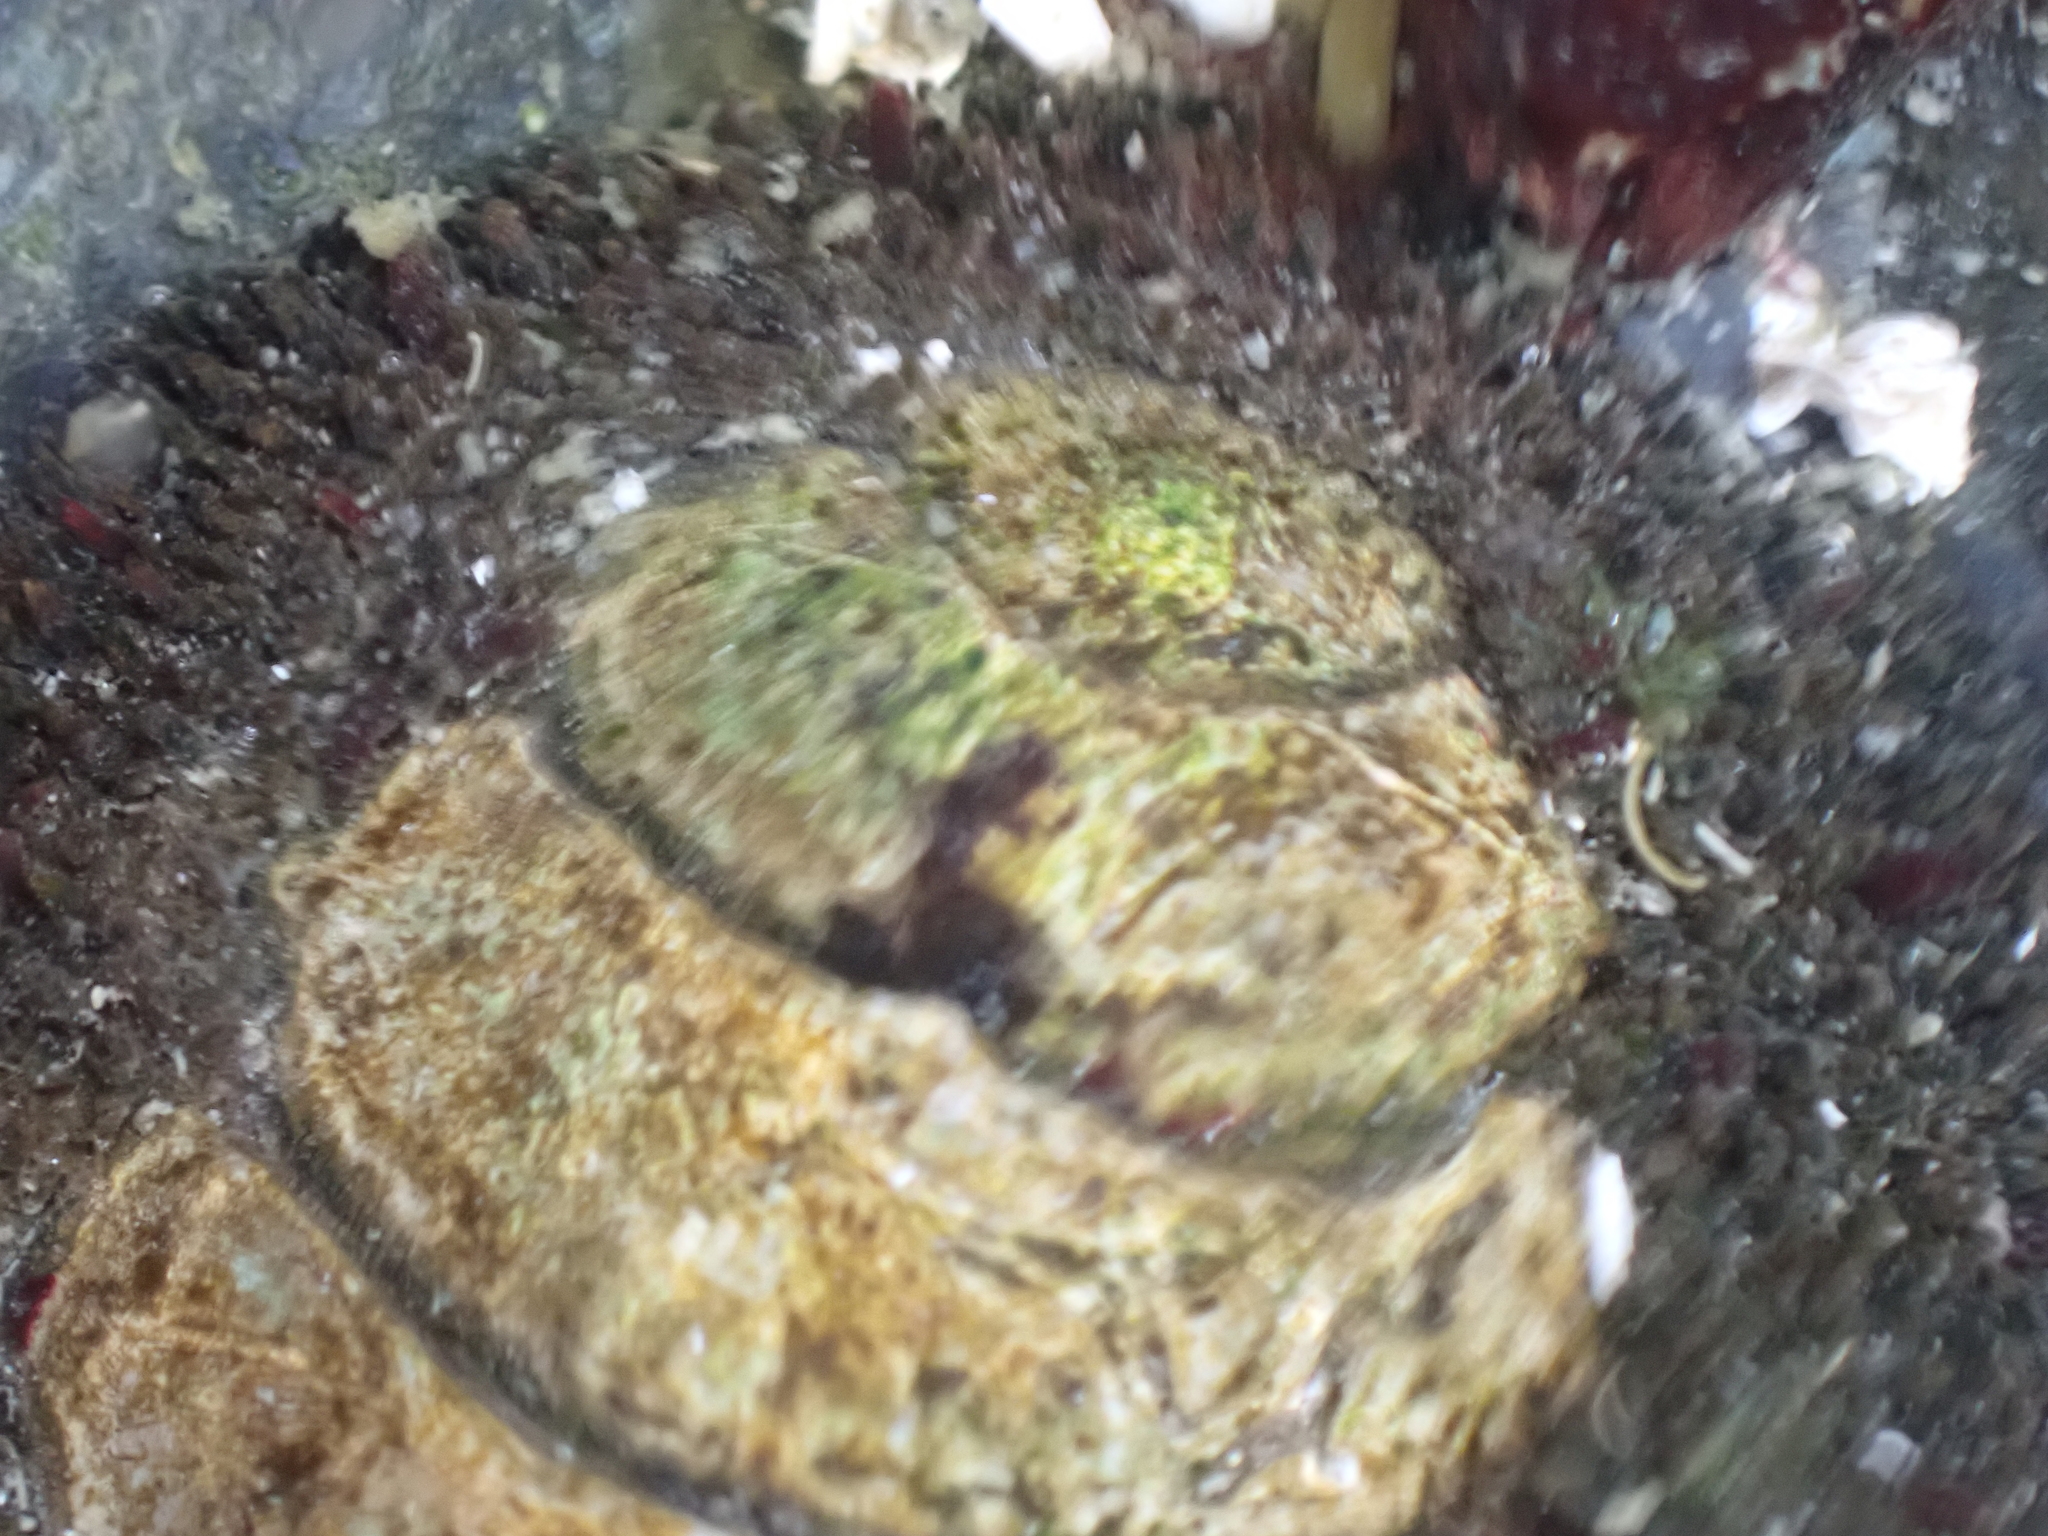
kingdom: Animalia
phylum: Mollusca
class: Polyplacophora
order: Chitonida
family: Mopaliidae
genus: Mopalia
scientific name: Mopalia muscosa
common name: Mossy chiton
